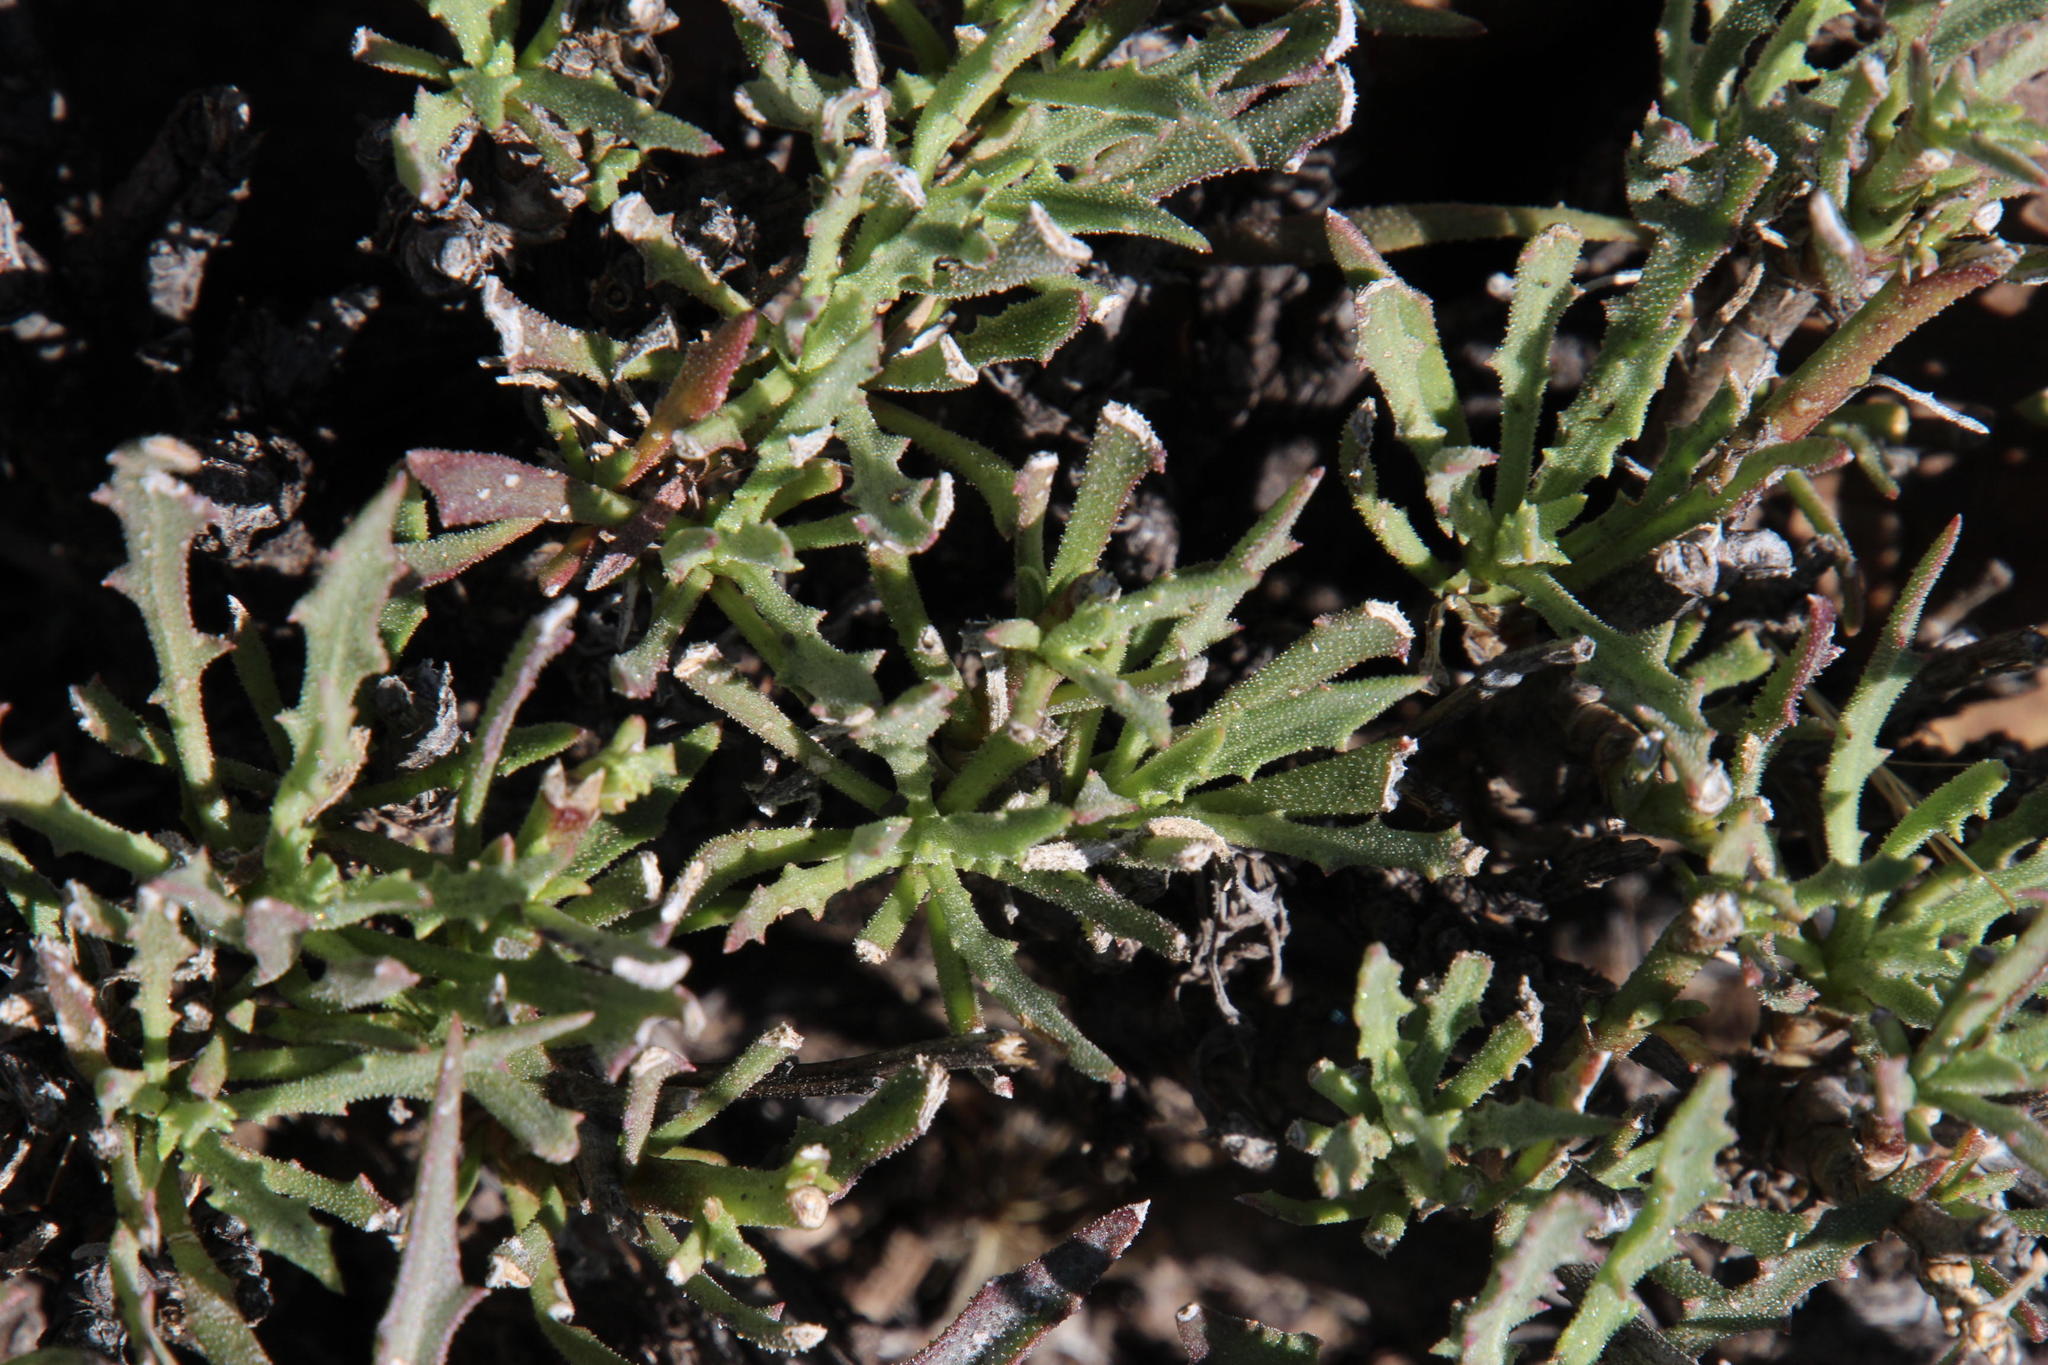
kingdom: Plantae
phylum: Tracheophyta
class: Magnoliopsida
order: Asterales
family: Asteraceae
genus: Osteospermum
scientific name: Osteospermum sinuatum
